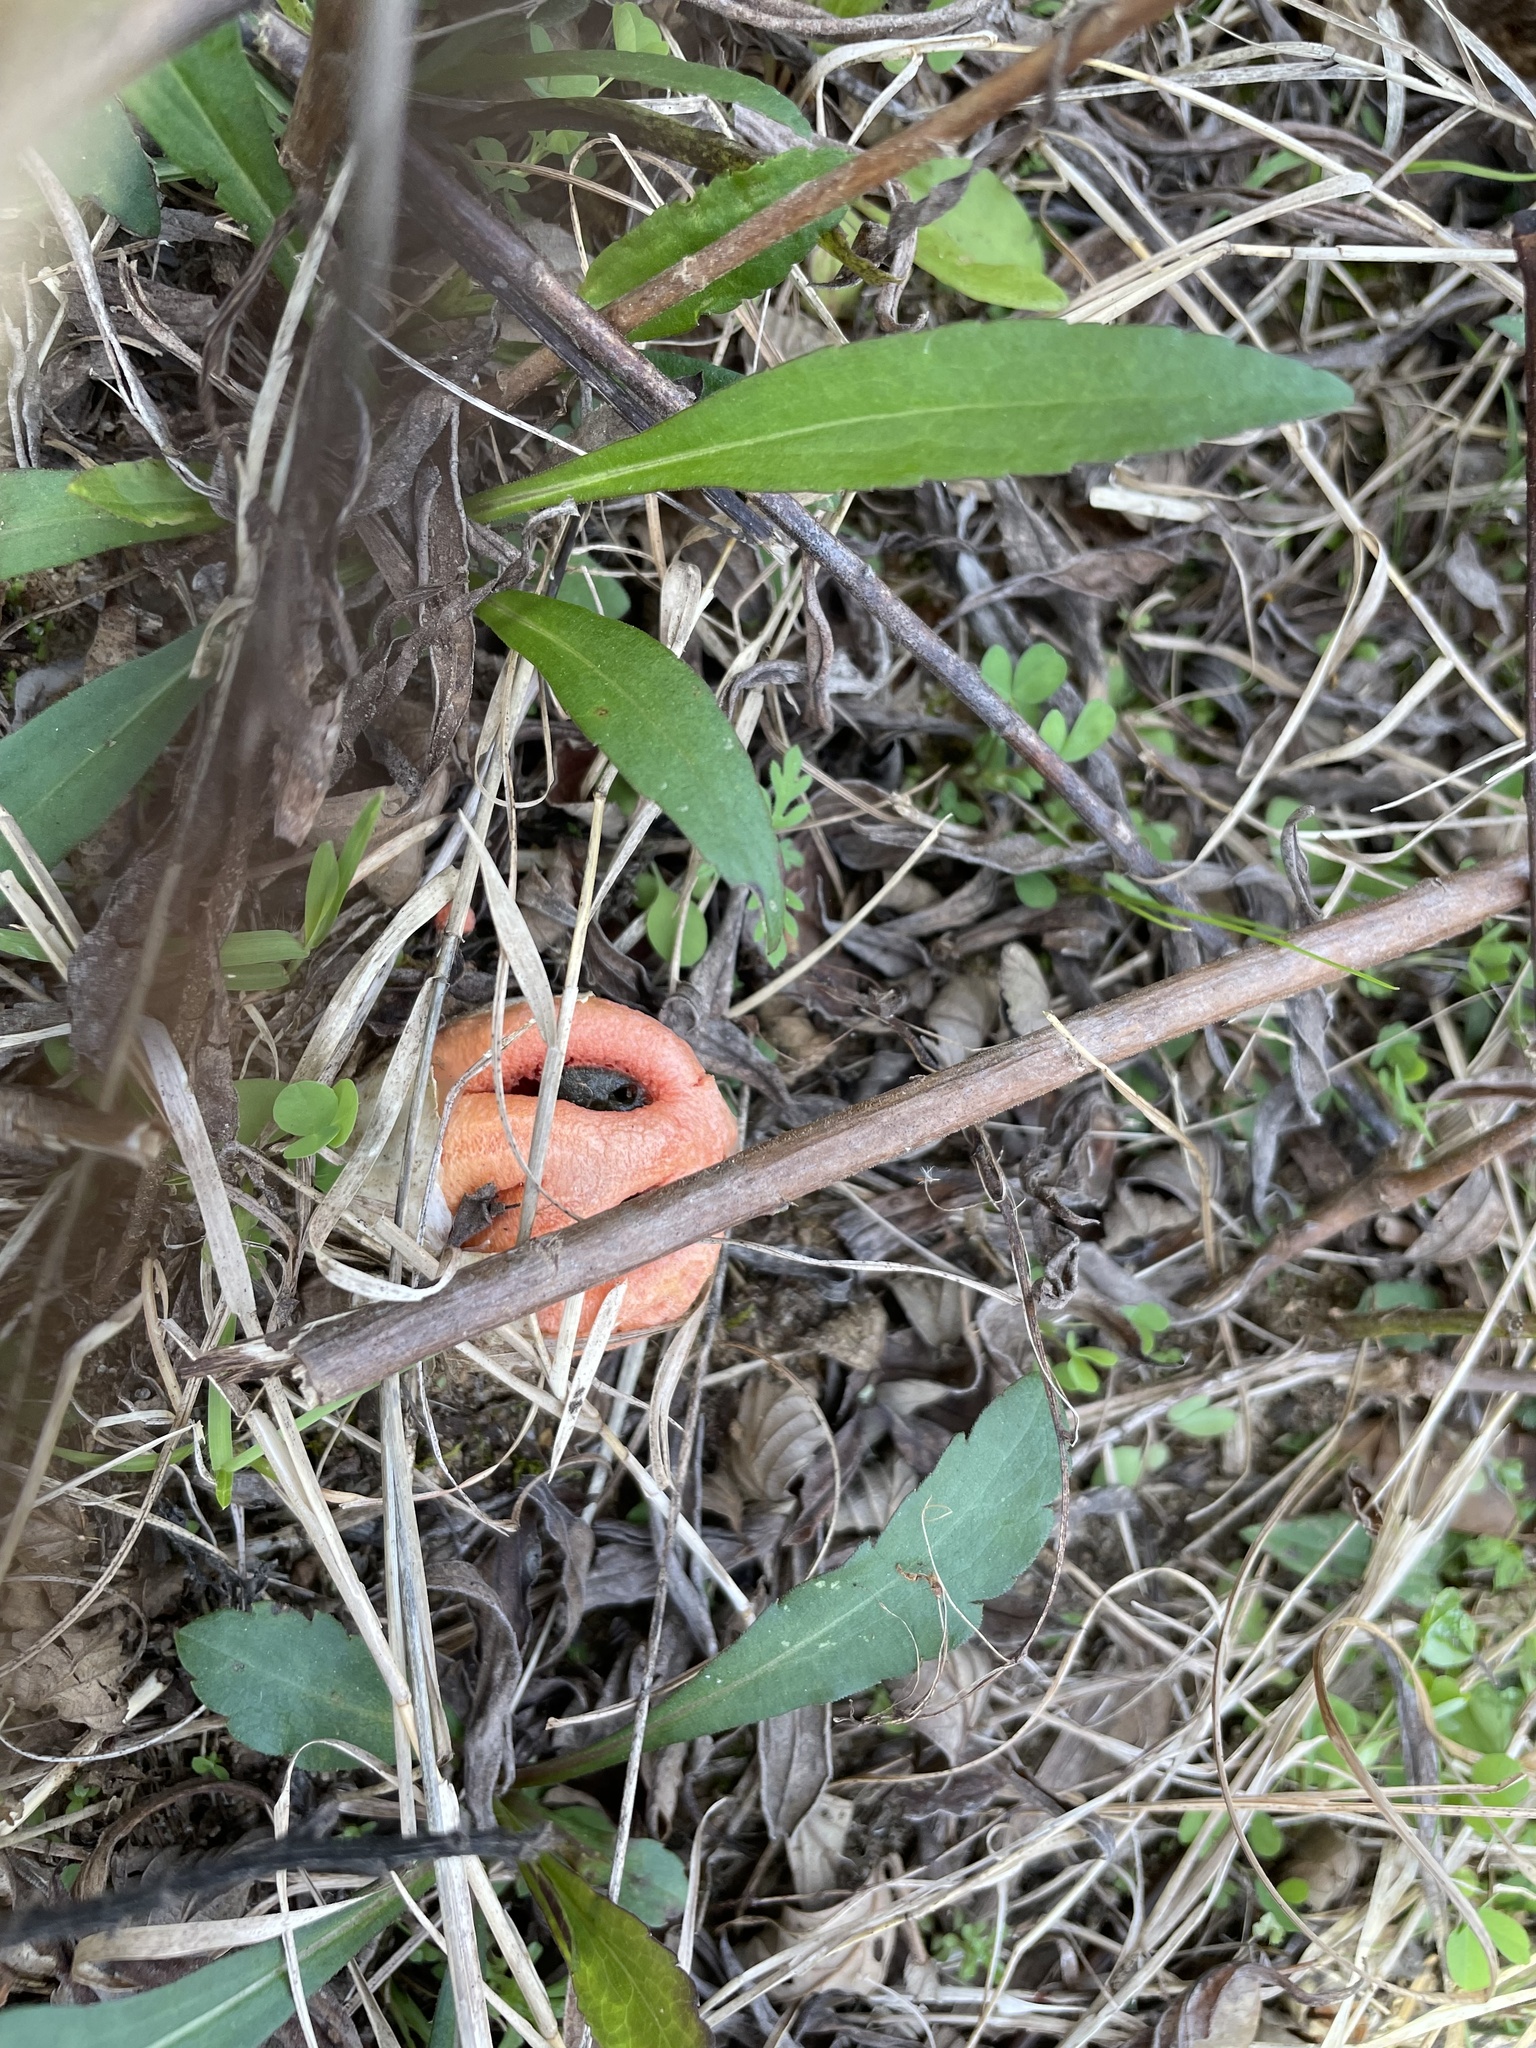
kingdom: Fungi
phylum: Basidiomycota
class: Agaricomycetes
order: Phallales
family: Phallaceae
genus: Clathrus
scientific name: Clathrus columnatus
